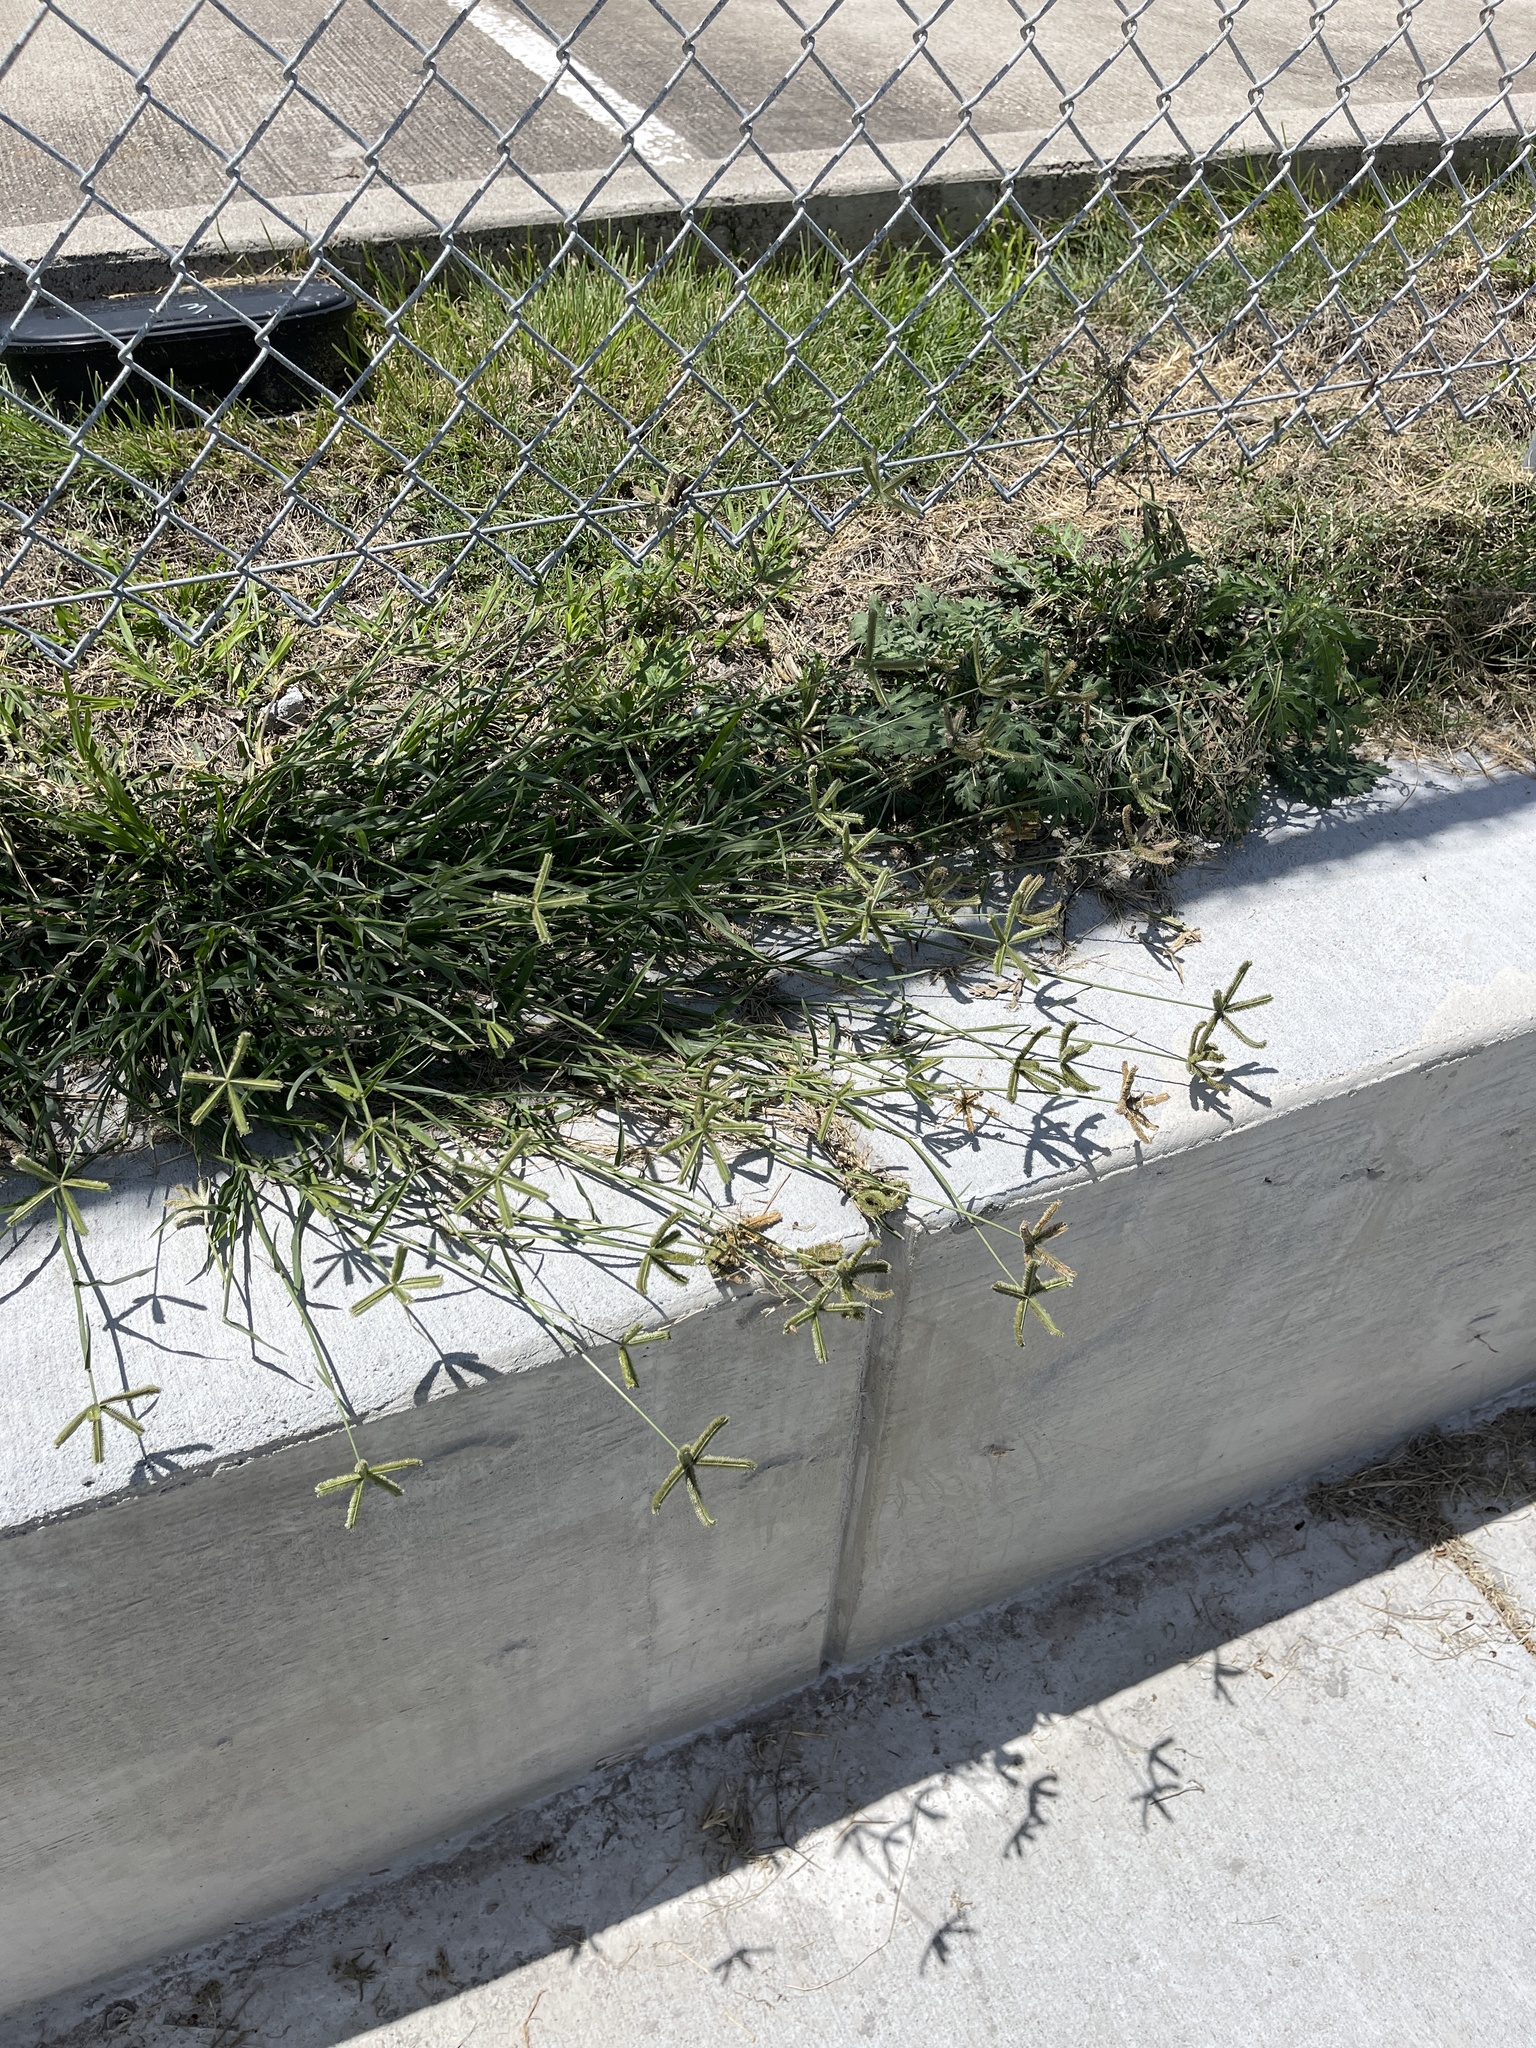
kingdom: Plantae
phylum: Tracheophyta
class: Liliopsida
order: Poales
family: Poaceae
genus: Dactyloctenium
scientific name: Dactyloctenium aegyptium
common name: Egyptian grass
